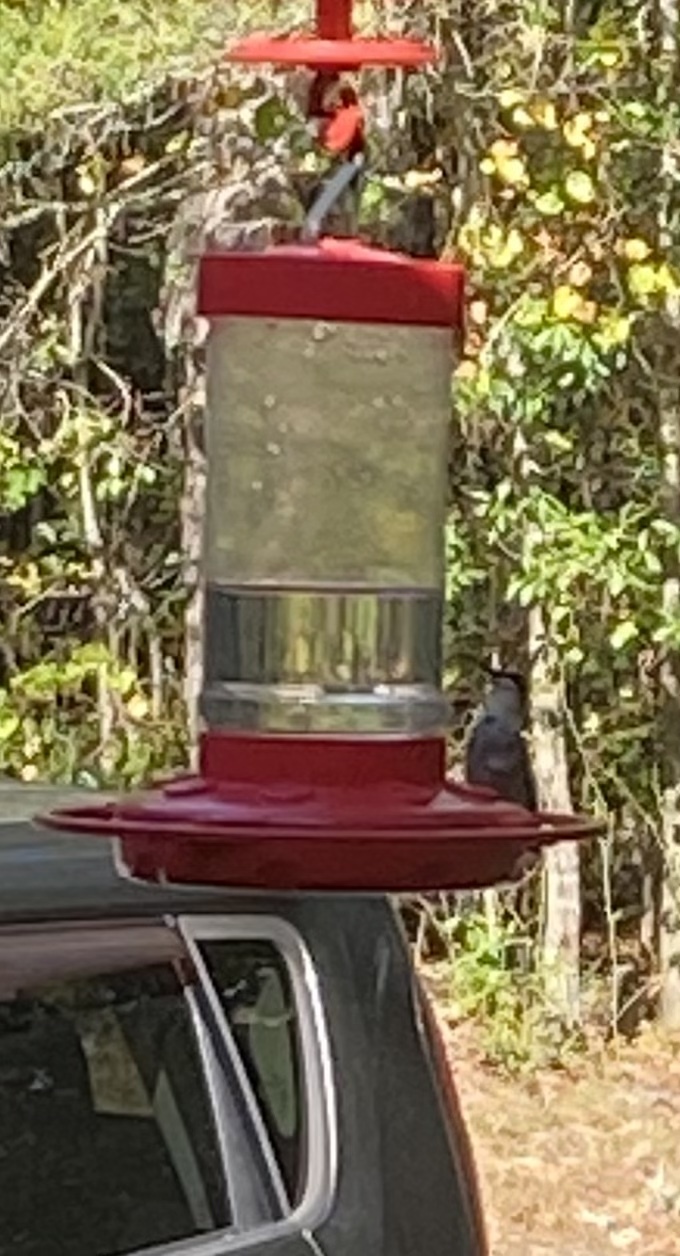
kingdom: Animalia
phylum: Chordata
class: Aves
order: Apodiformes
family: Trochilidae
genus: Archilochus
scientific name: Archilochus colubris
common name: Ruby-throated hummingbird
